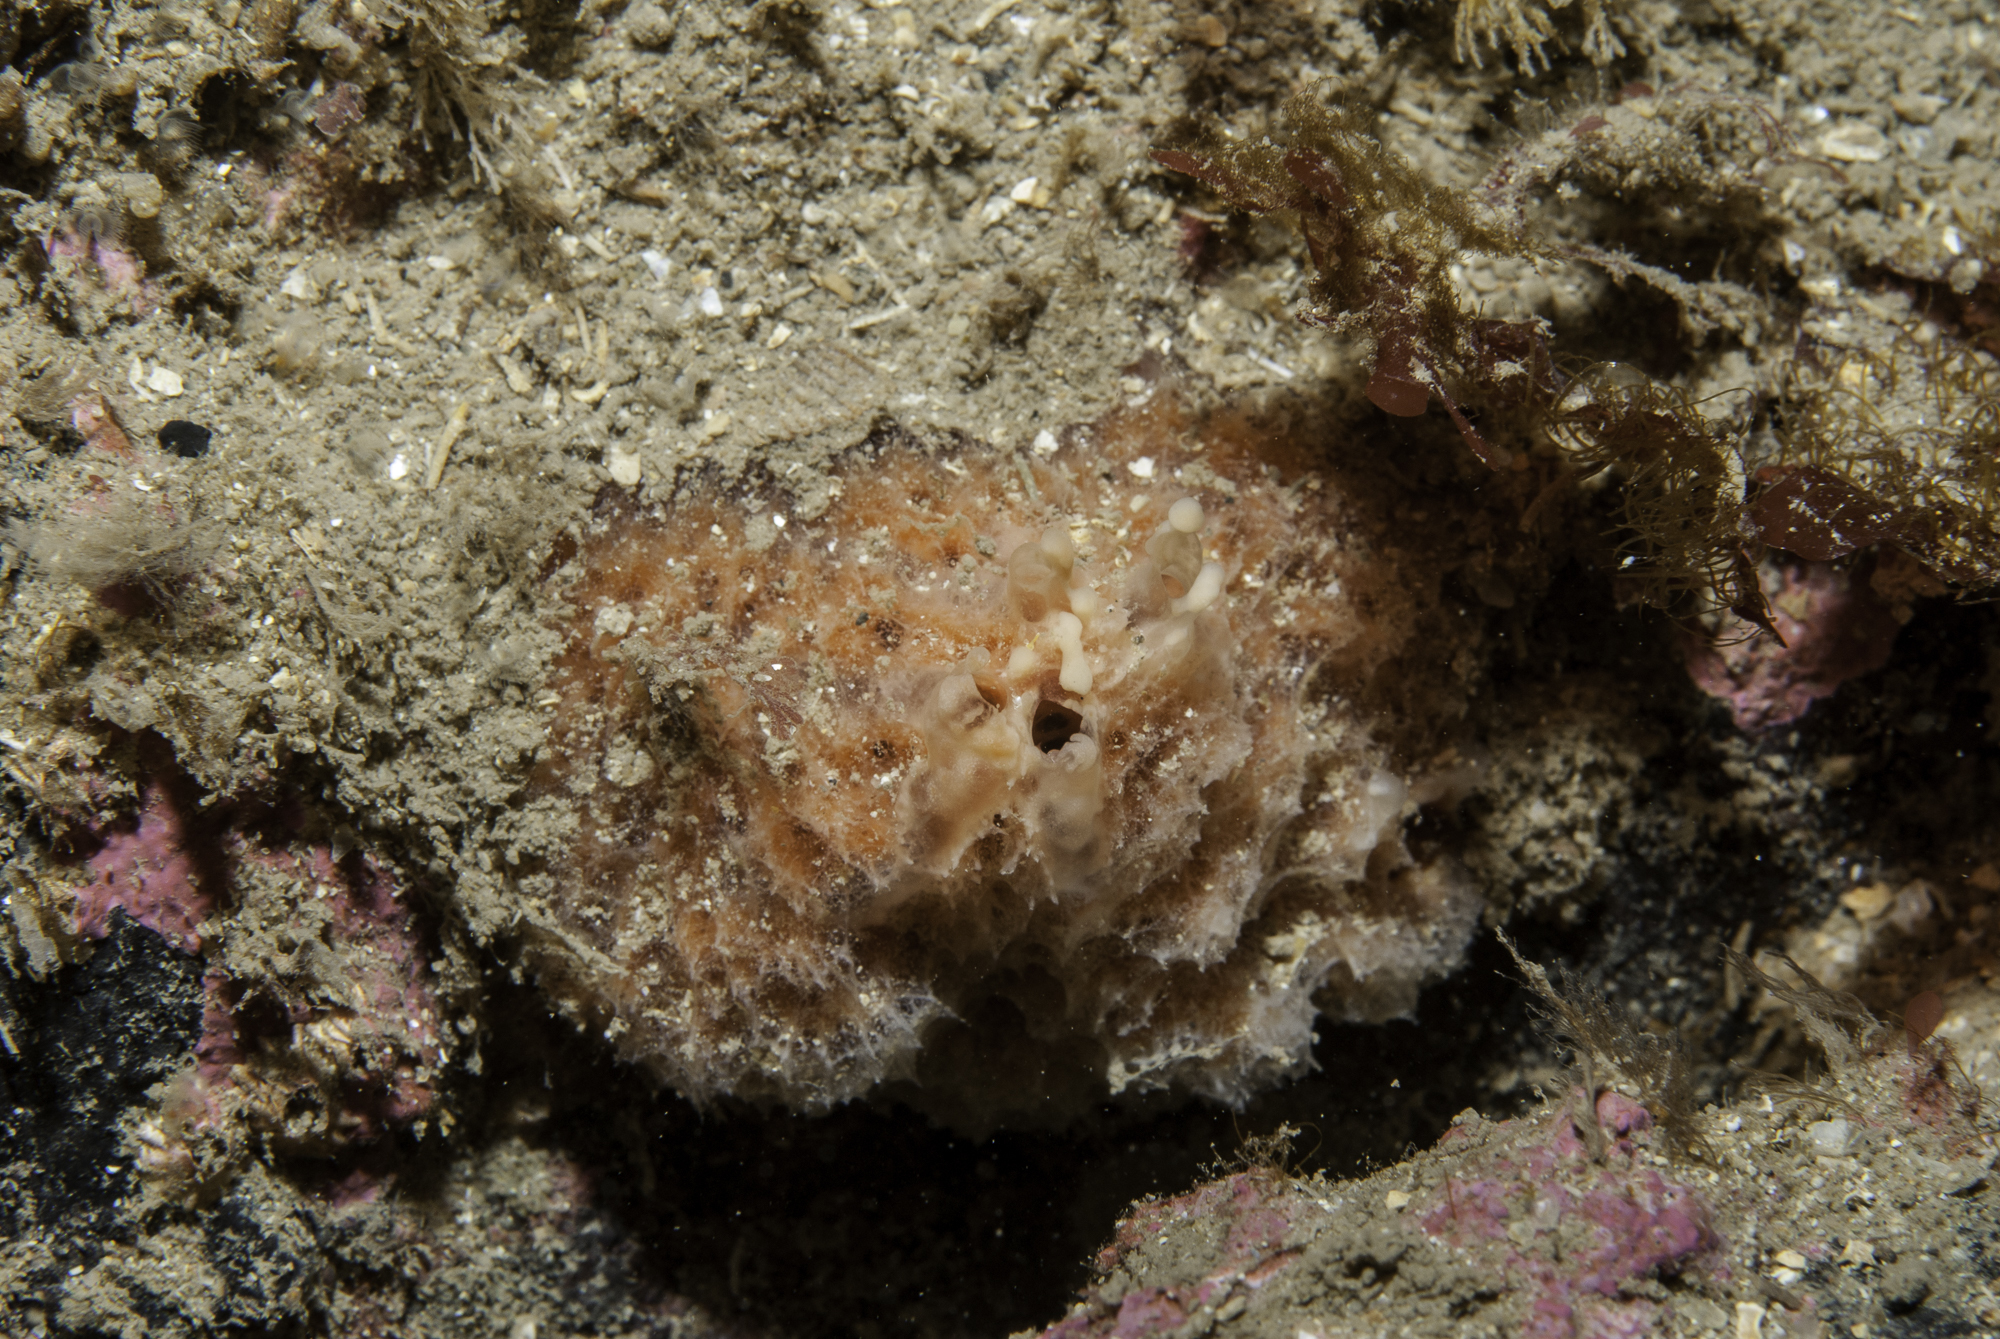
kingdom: Animalia
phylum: Porifera
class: Demospongiae
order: Bubarida
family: Dictyonellidae
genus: Tethyspira
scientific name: Tethyspira spinosa
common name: Pork scratching sponge
